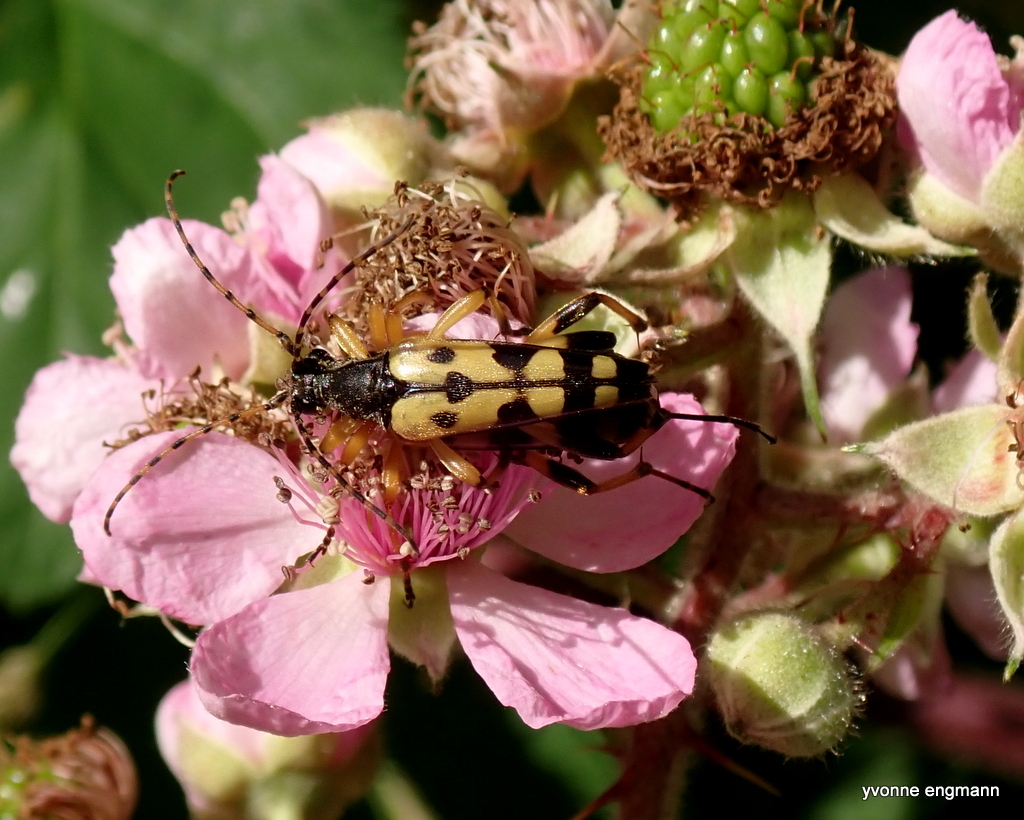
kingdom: Animalia
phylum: Arthropoda
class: Insecta
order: Coleoptera
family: Cerambycidae
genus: Rutpela
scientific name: Rutpela maculata
